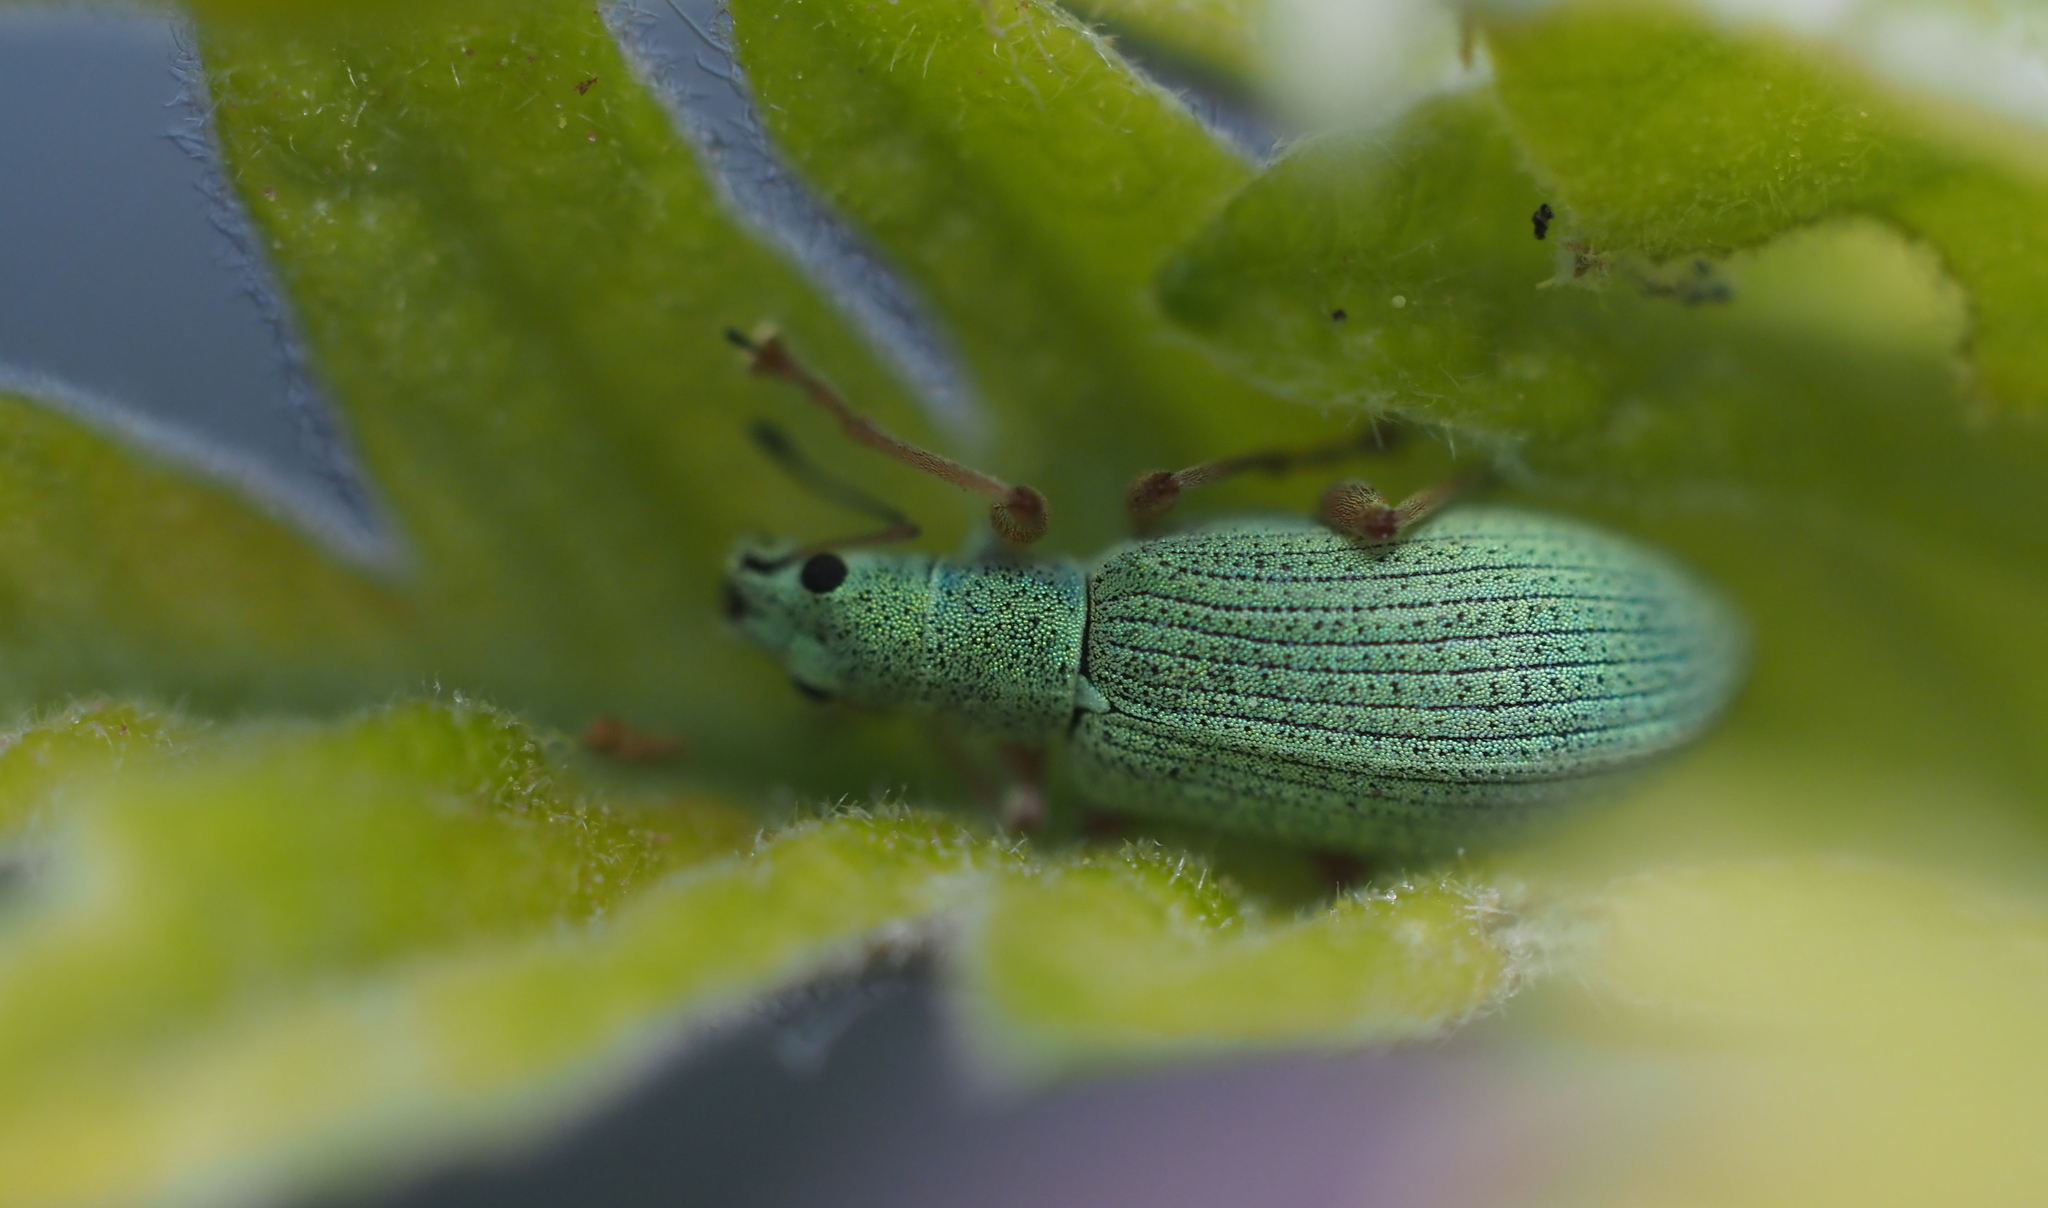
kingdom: Animalia
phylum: Arthropoda
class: Insecta
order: Coleoptera
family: Curculionidae
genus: Polydrusus
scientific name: Polydrusus impressifrons
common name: Weevil
